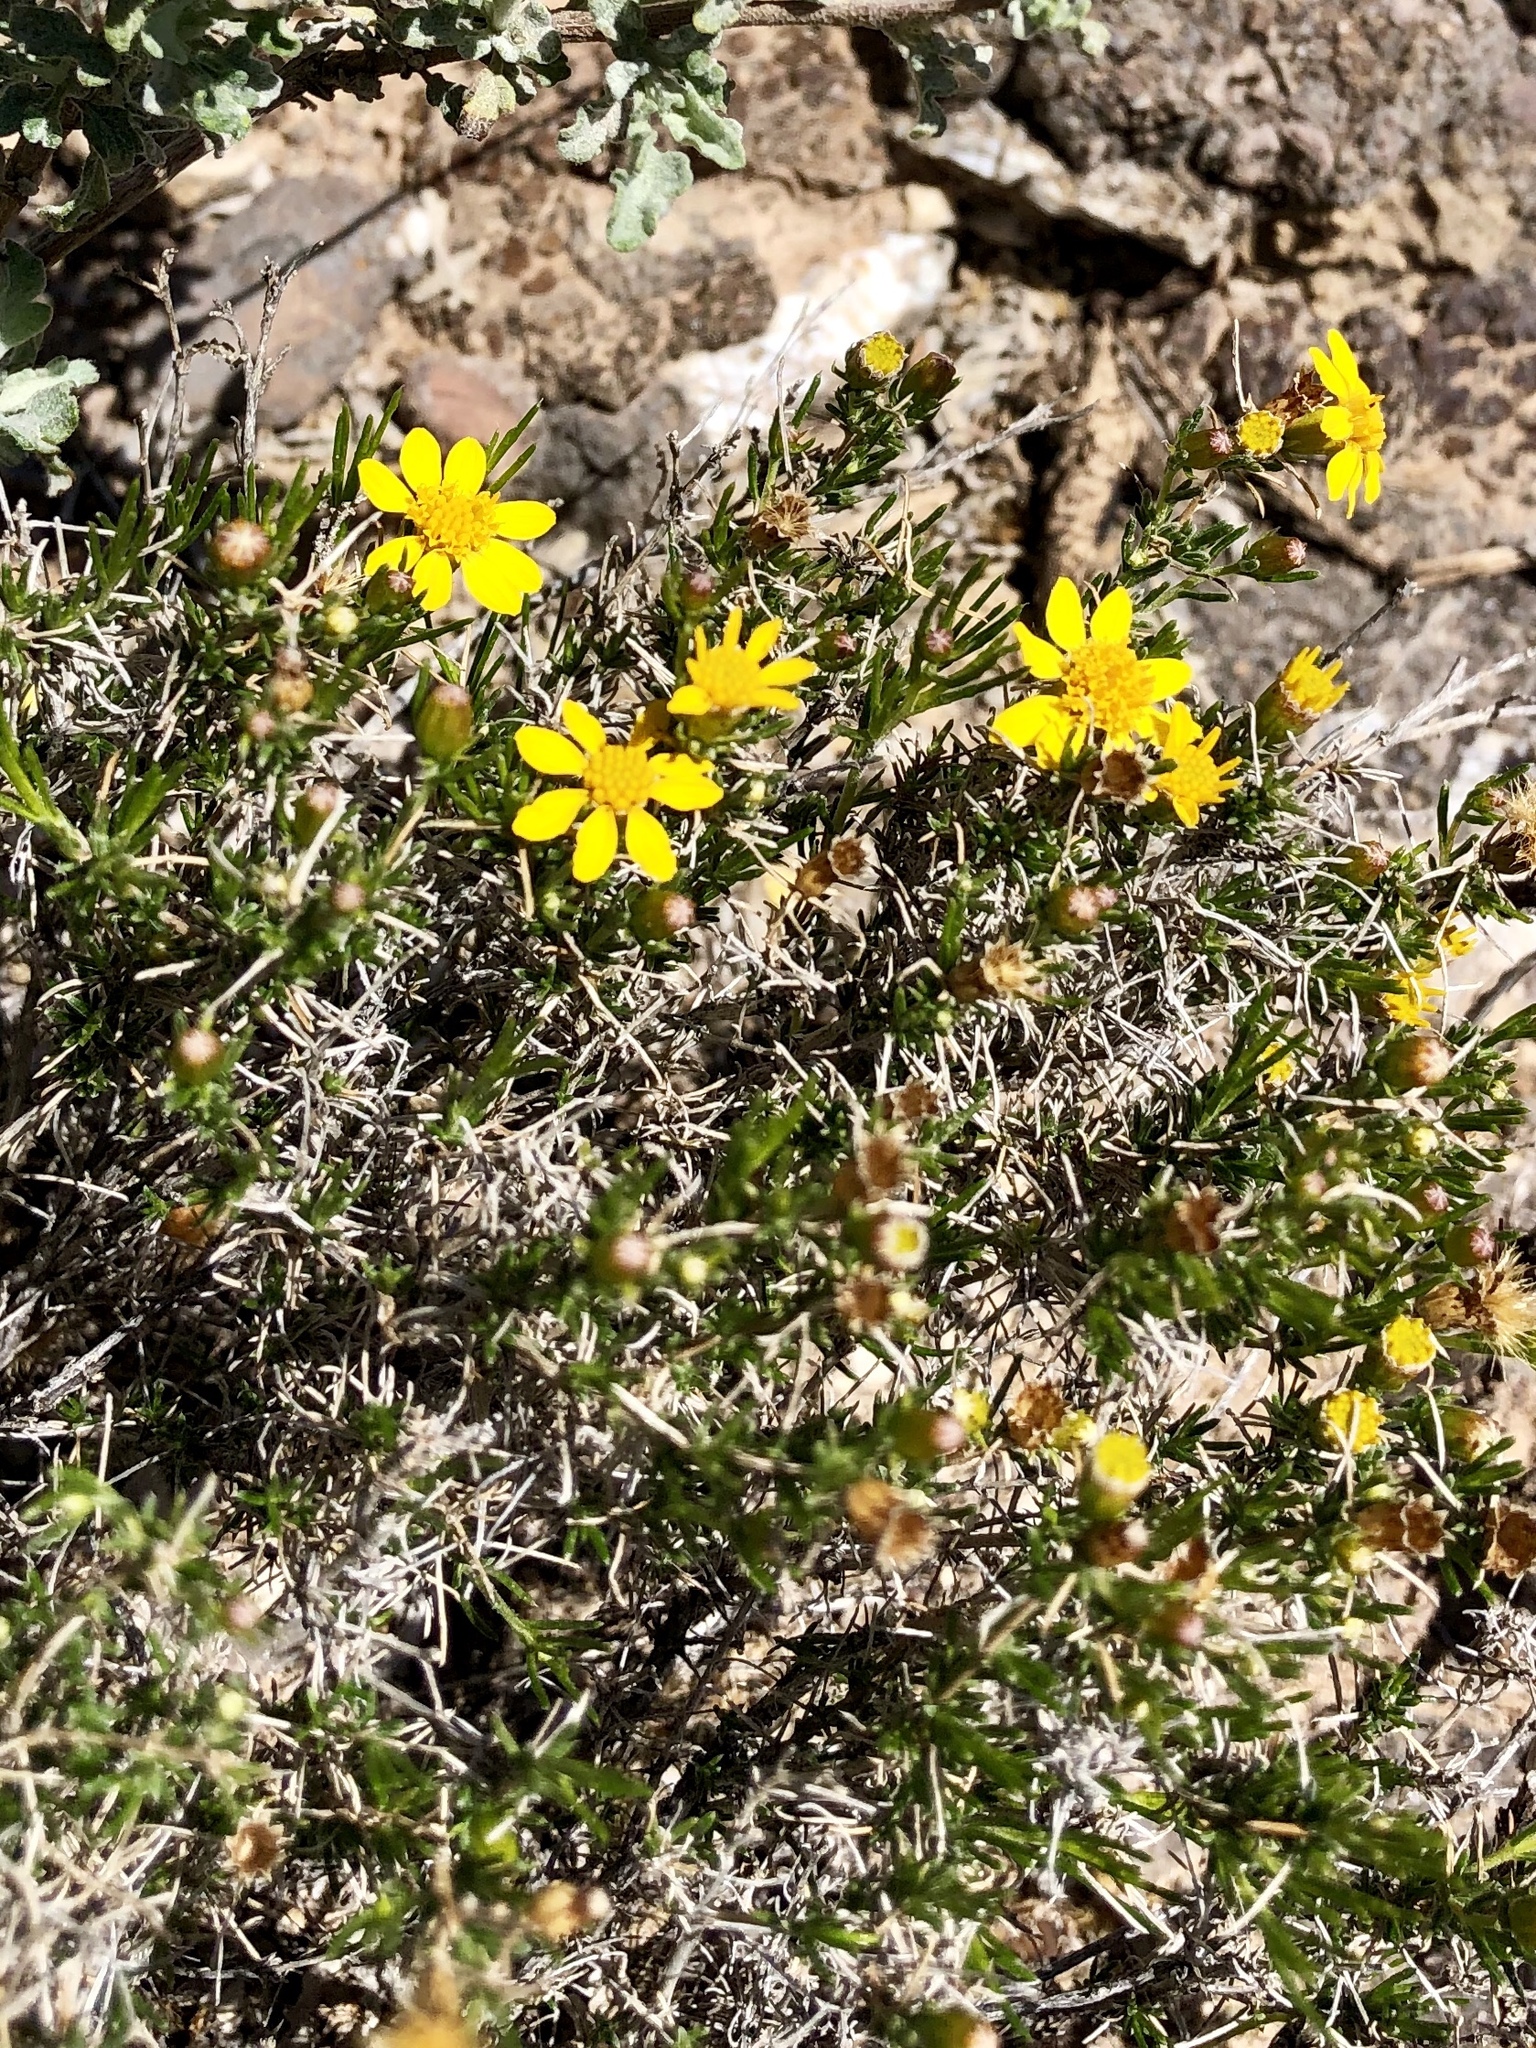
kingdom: Plantae
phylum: Tracheophyta
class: Magnoliopsida
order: Asterales
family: Asteraceae
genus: Thymophylla
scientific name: Thymophylla acerosa
